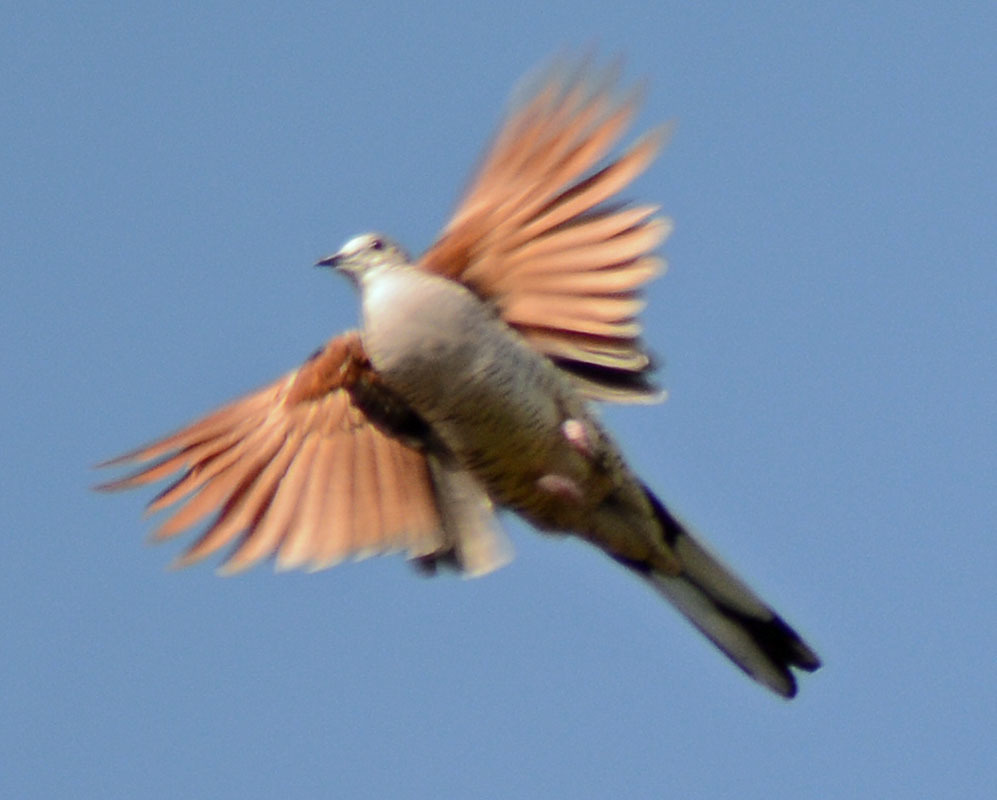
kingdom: Animalia
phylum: Chordata
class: Aves
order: Columbiformes
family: Columbidae
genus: Columbina
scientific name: Columbina inca
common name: Inca dove
